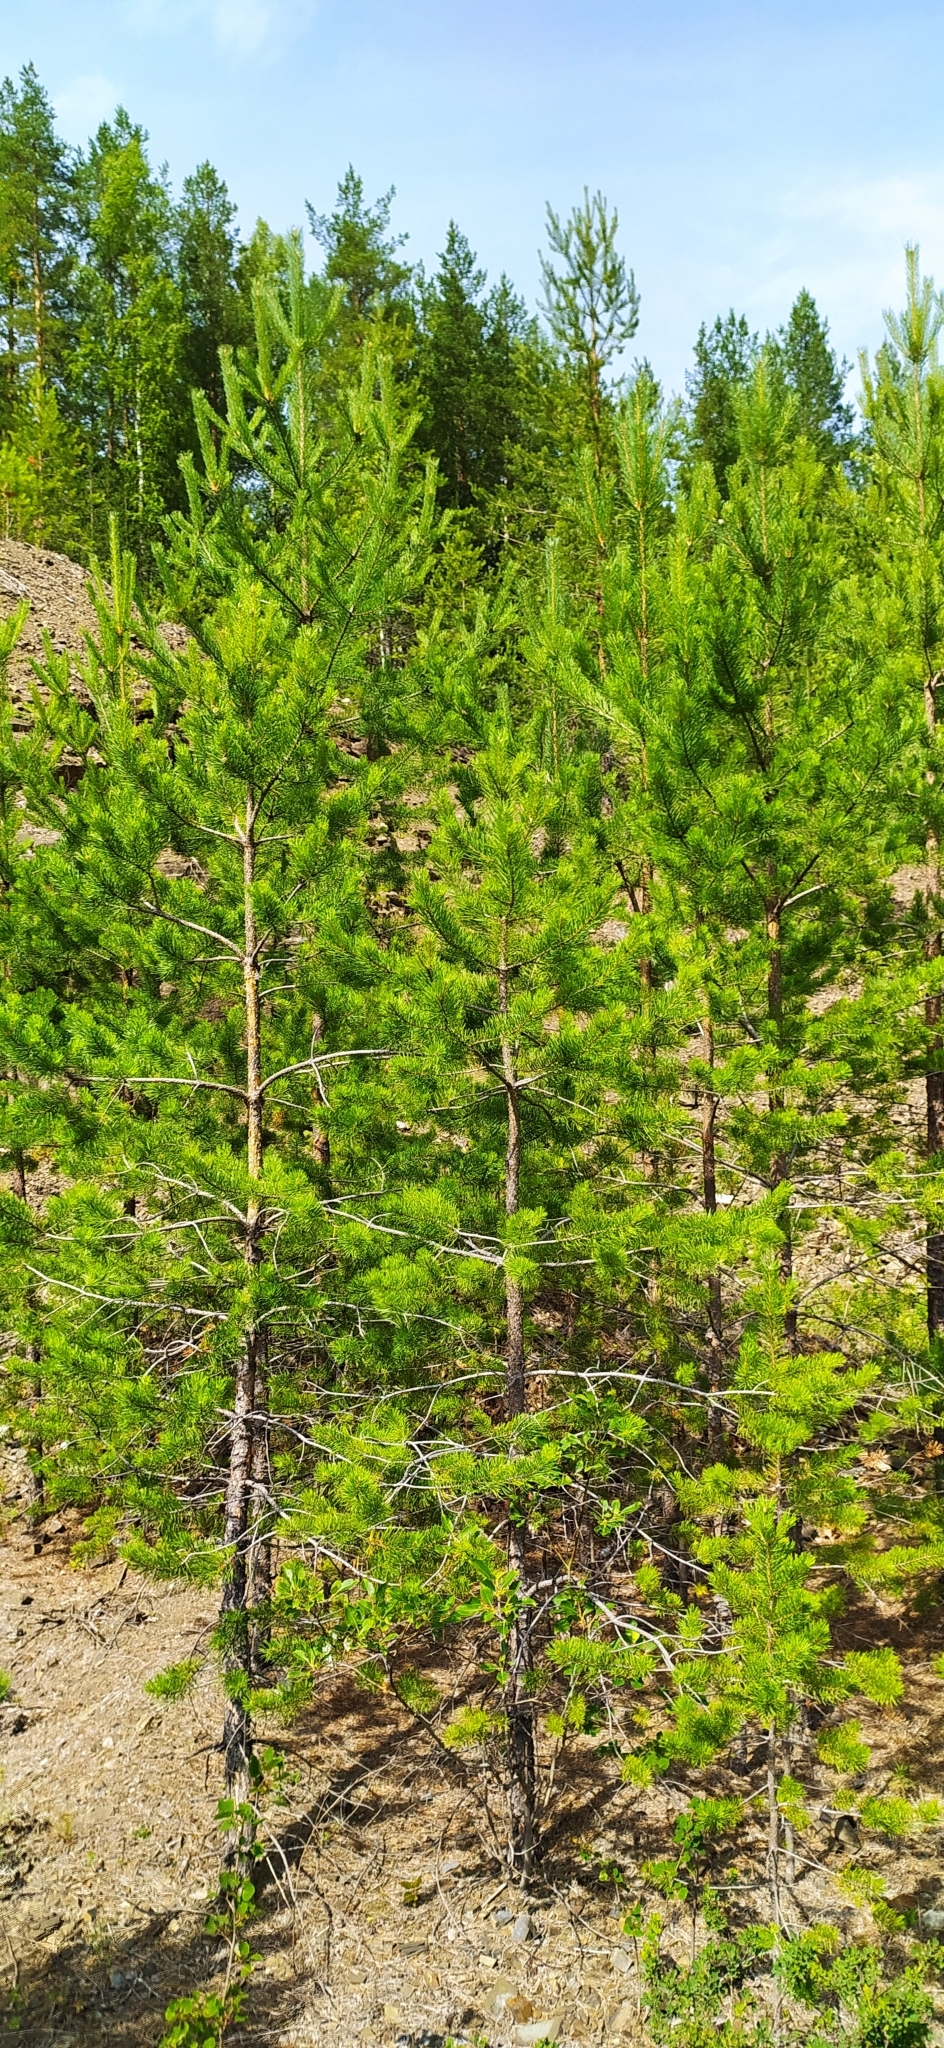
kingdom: Plantae
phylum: Tracheophyta
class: Pinopsida
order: Pinales
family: Pinaceae
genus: Pinus
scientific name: Pinus sylvestris
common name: Scots pine
